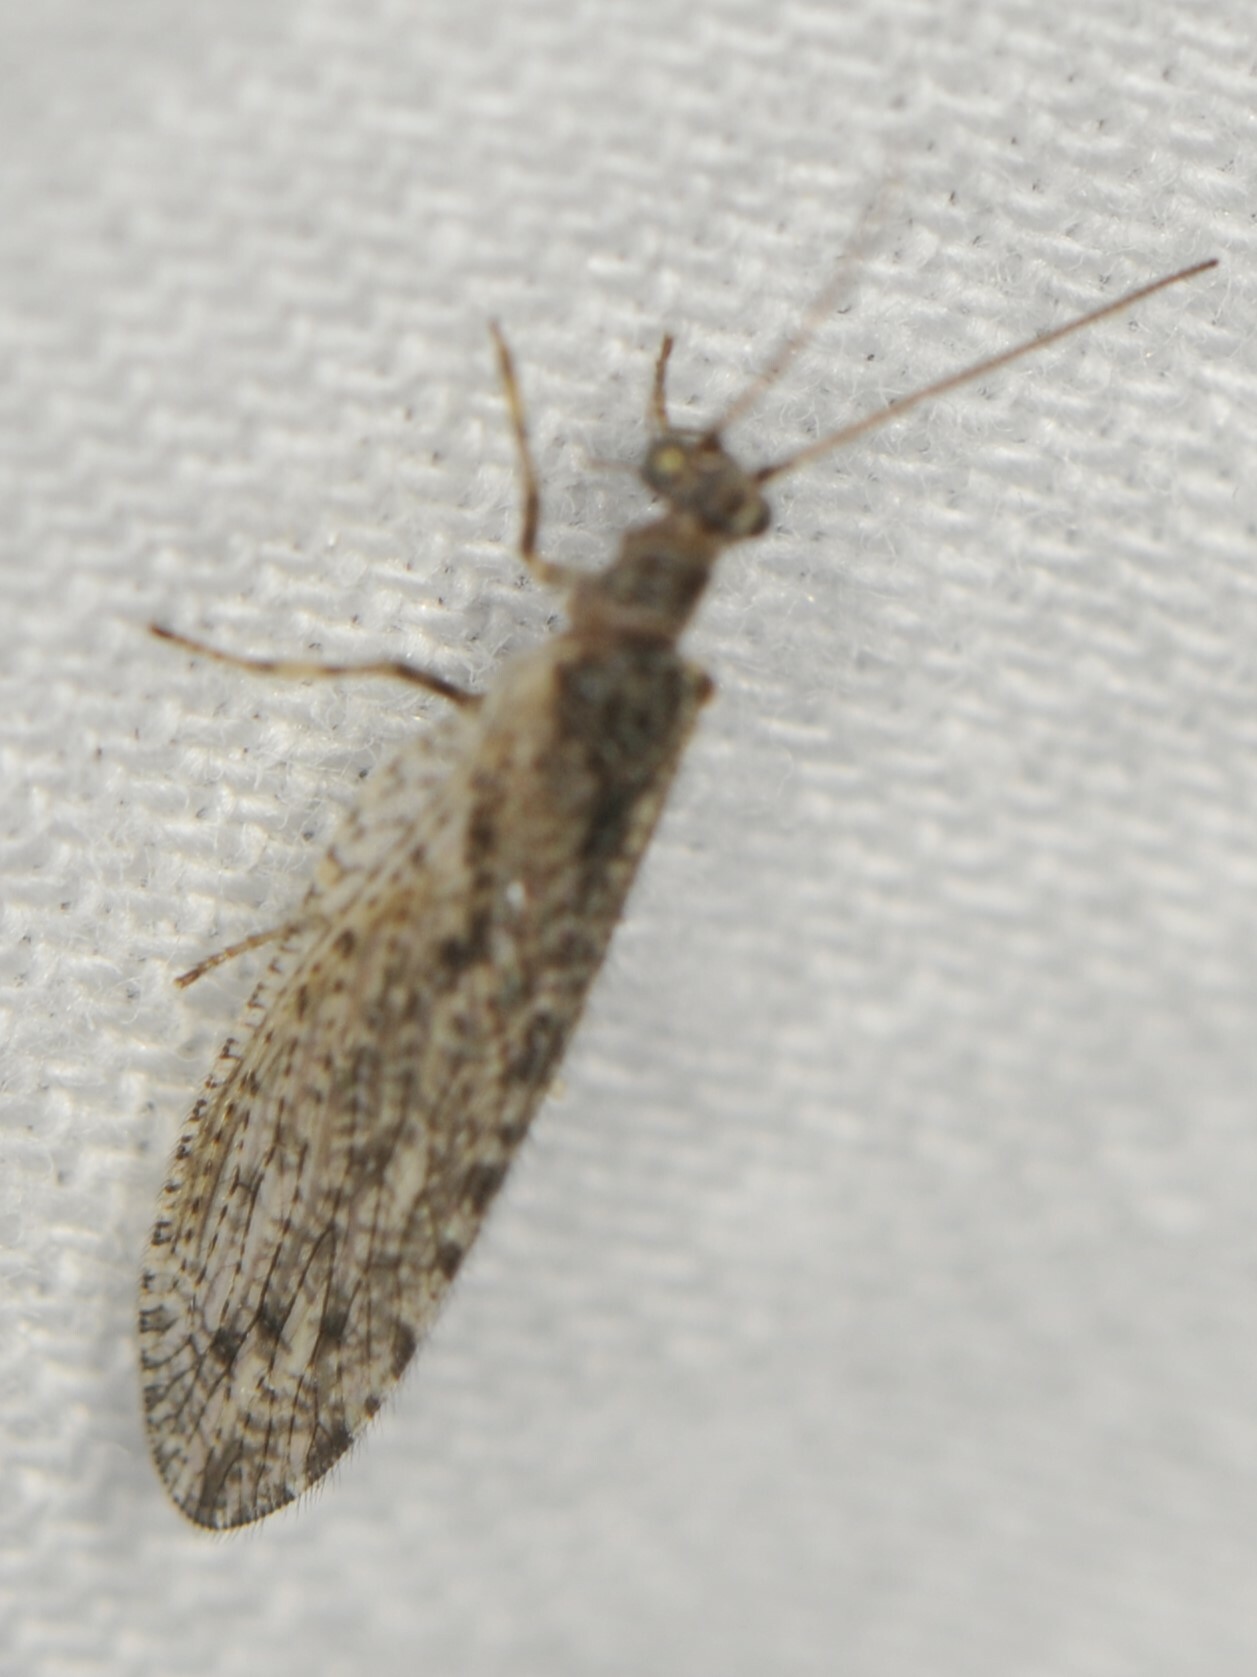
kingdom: Animalia
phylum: Arthropoda
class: Insecta
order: Neuroptera
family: Hemerobiidae
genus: Micromus
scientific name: Micromus variolosus
